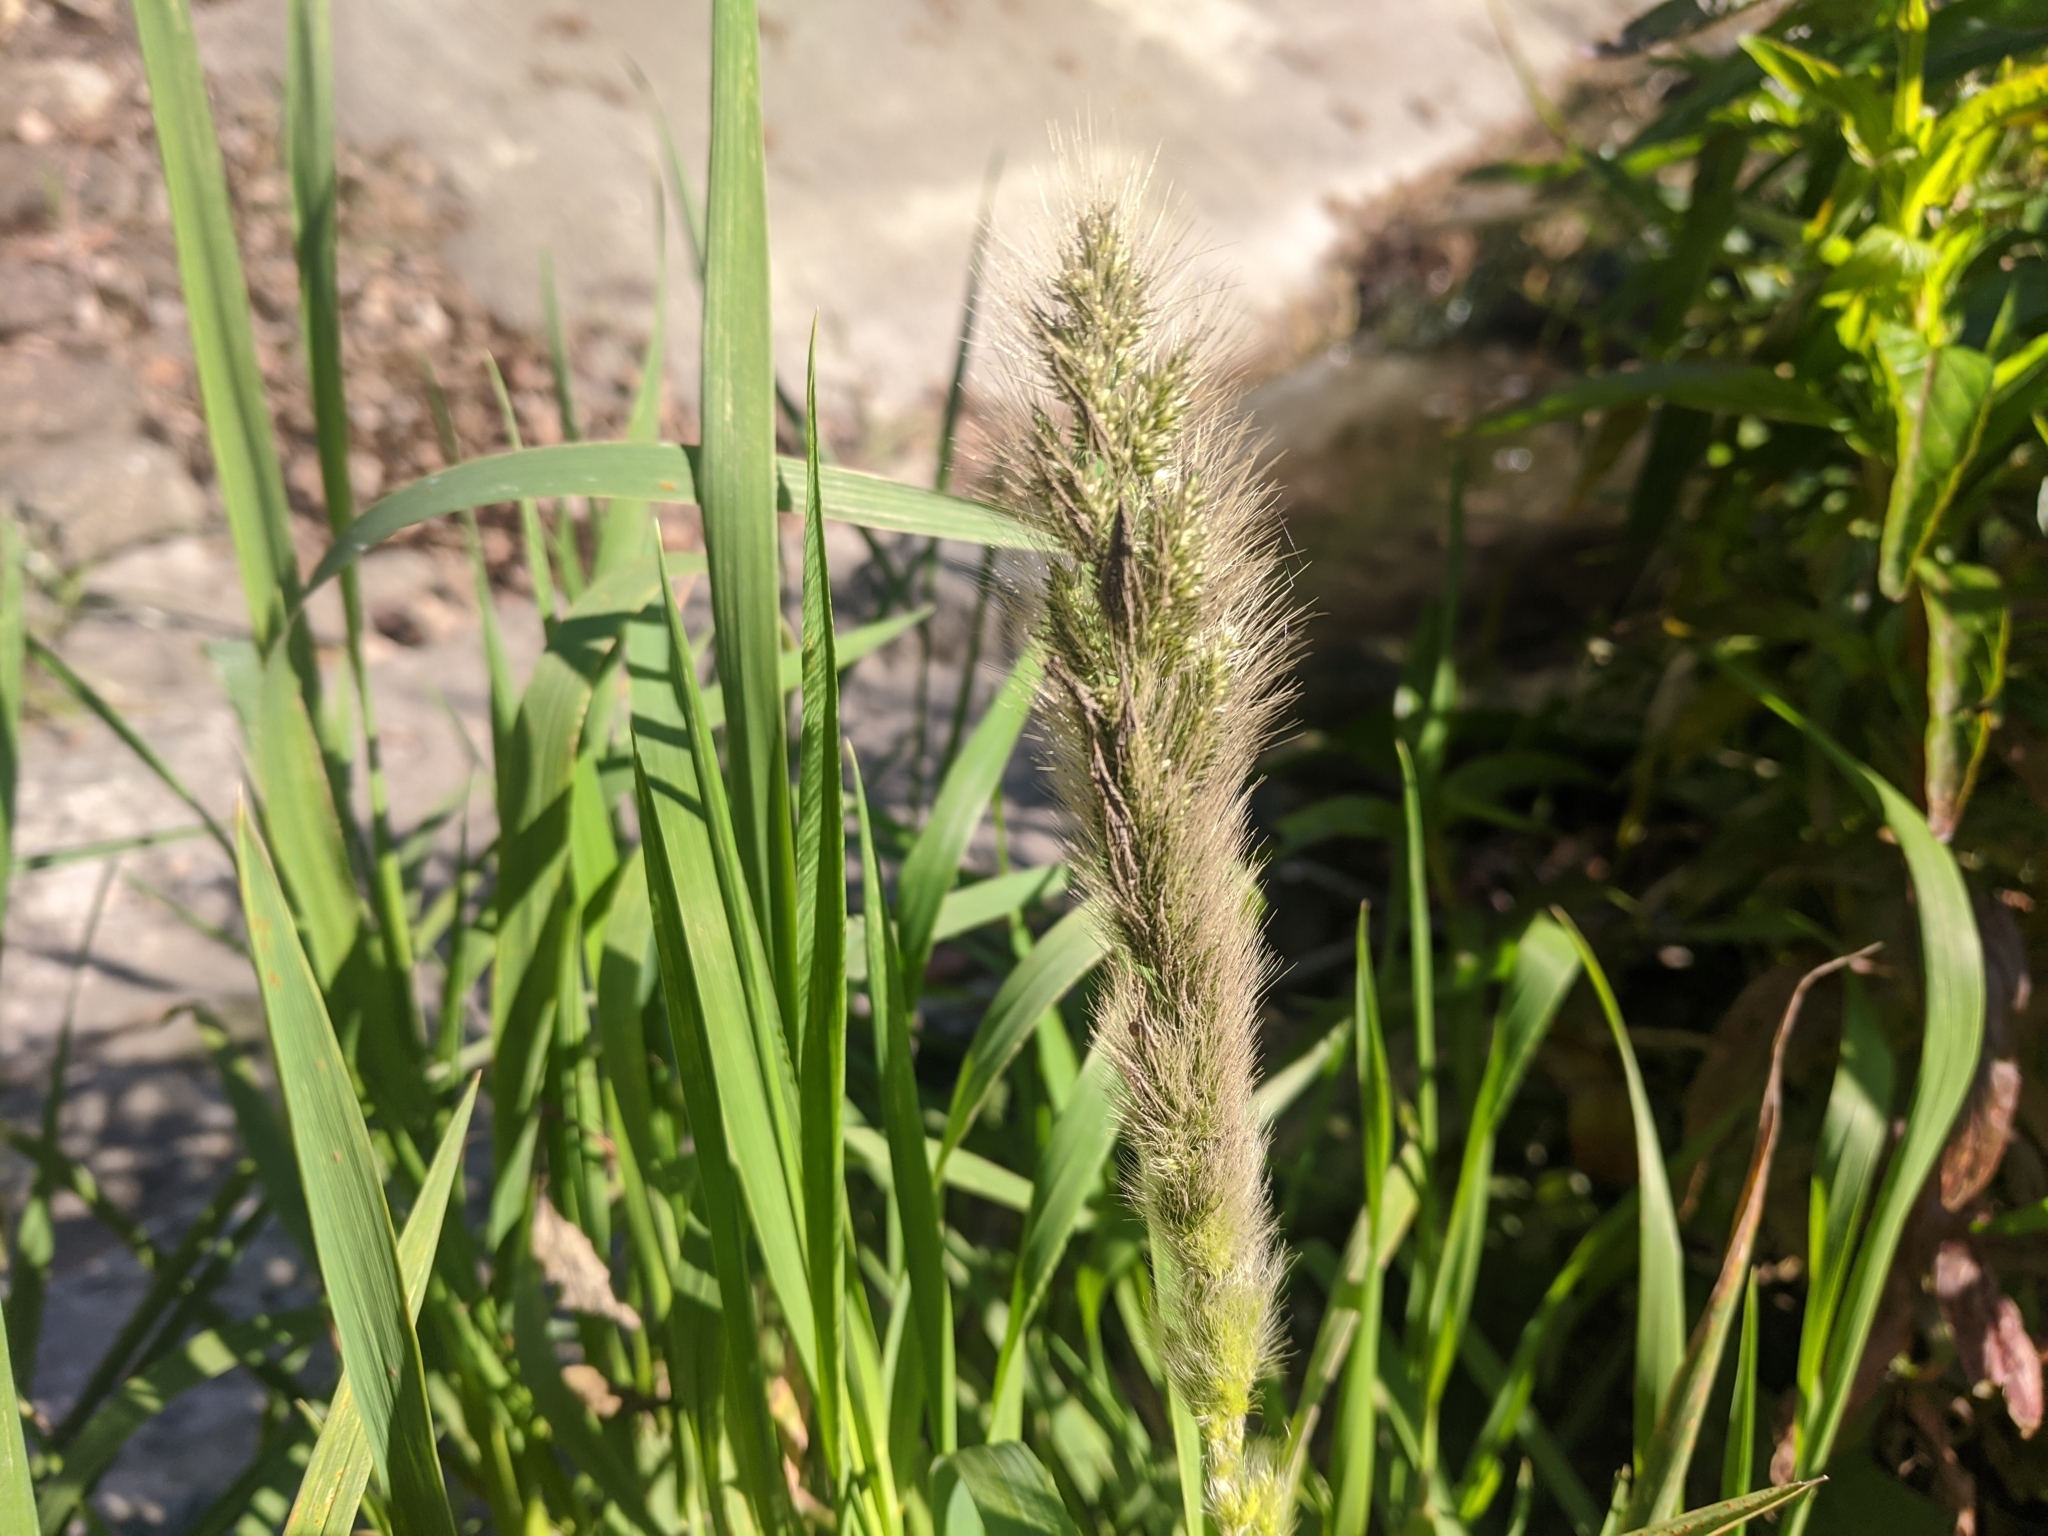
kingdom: Plantae
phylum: Tracheophyta
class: Liliopsida
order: Poales
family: Poaceae
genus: Polypogon
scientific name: Polypogon monspeliensis
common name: Annual rabbitsfoot grass
